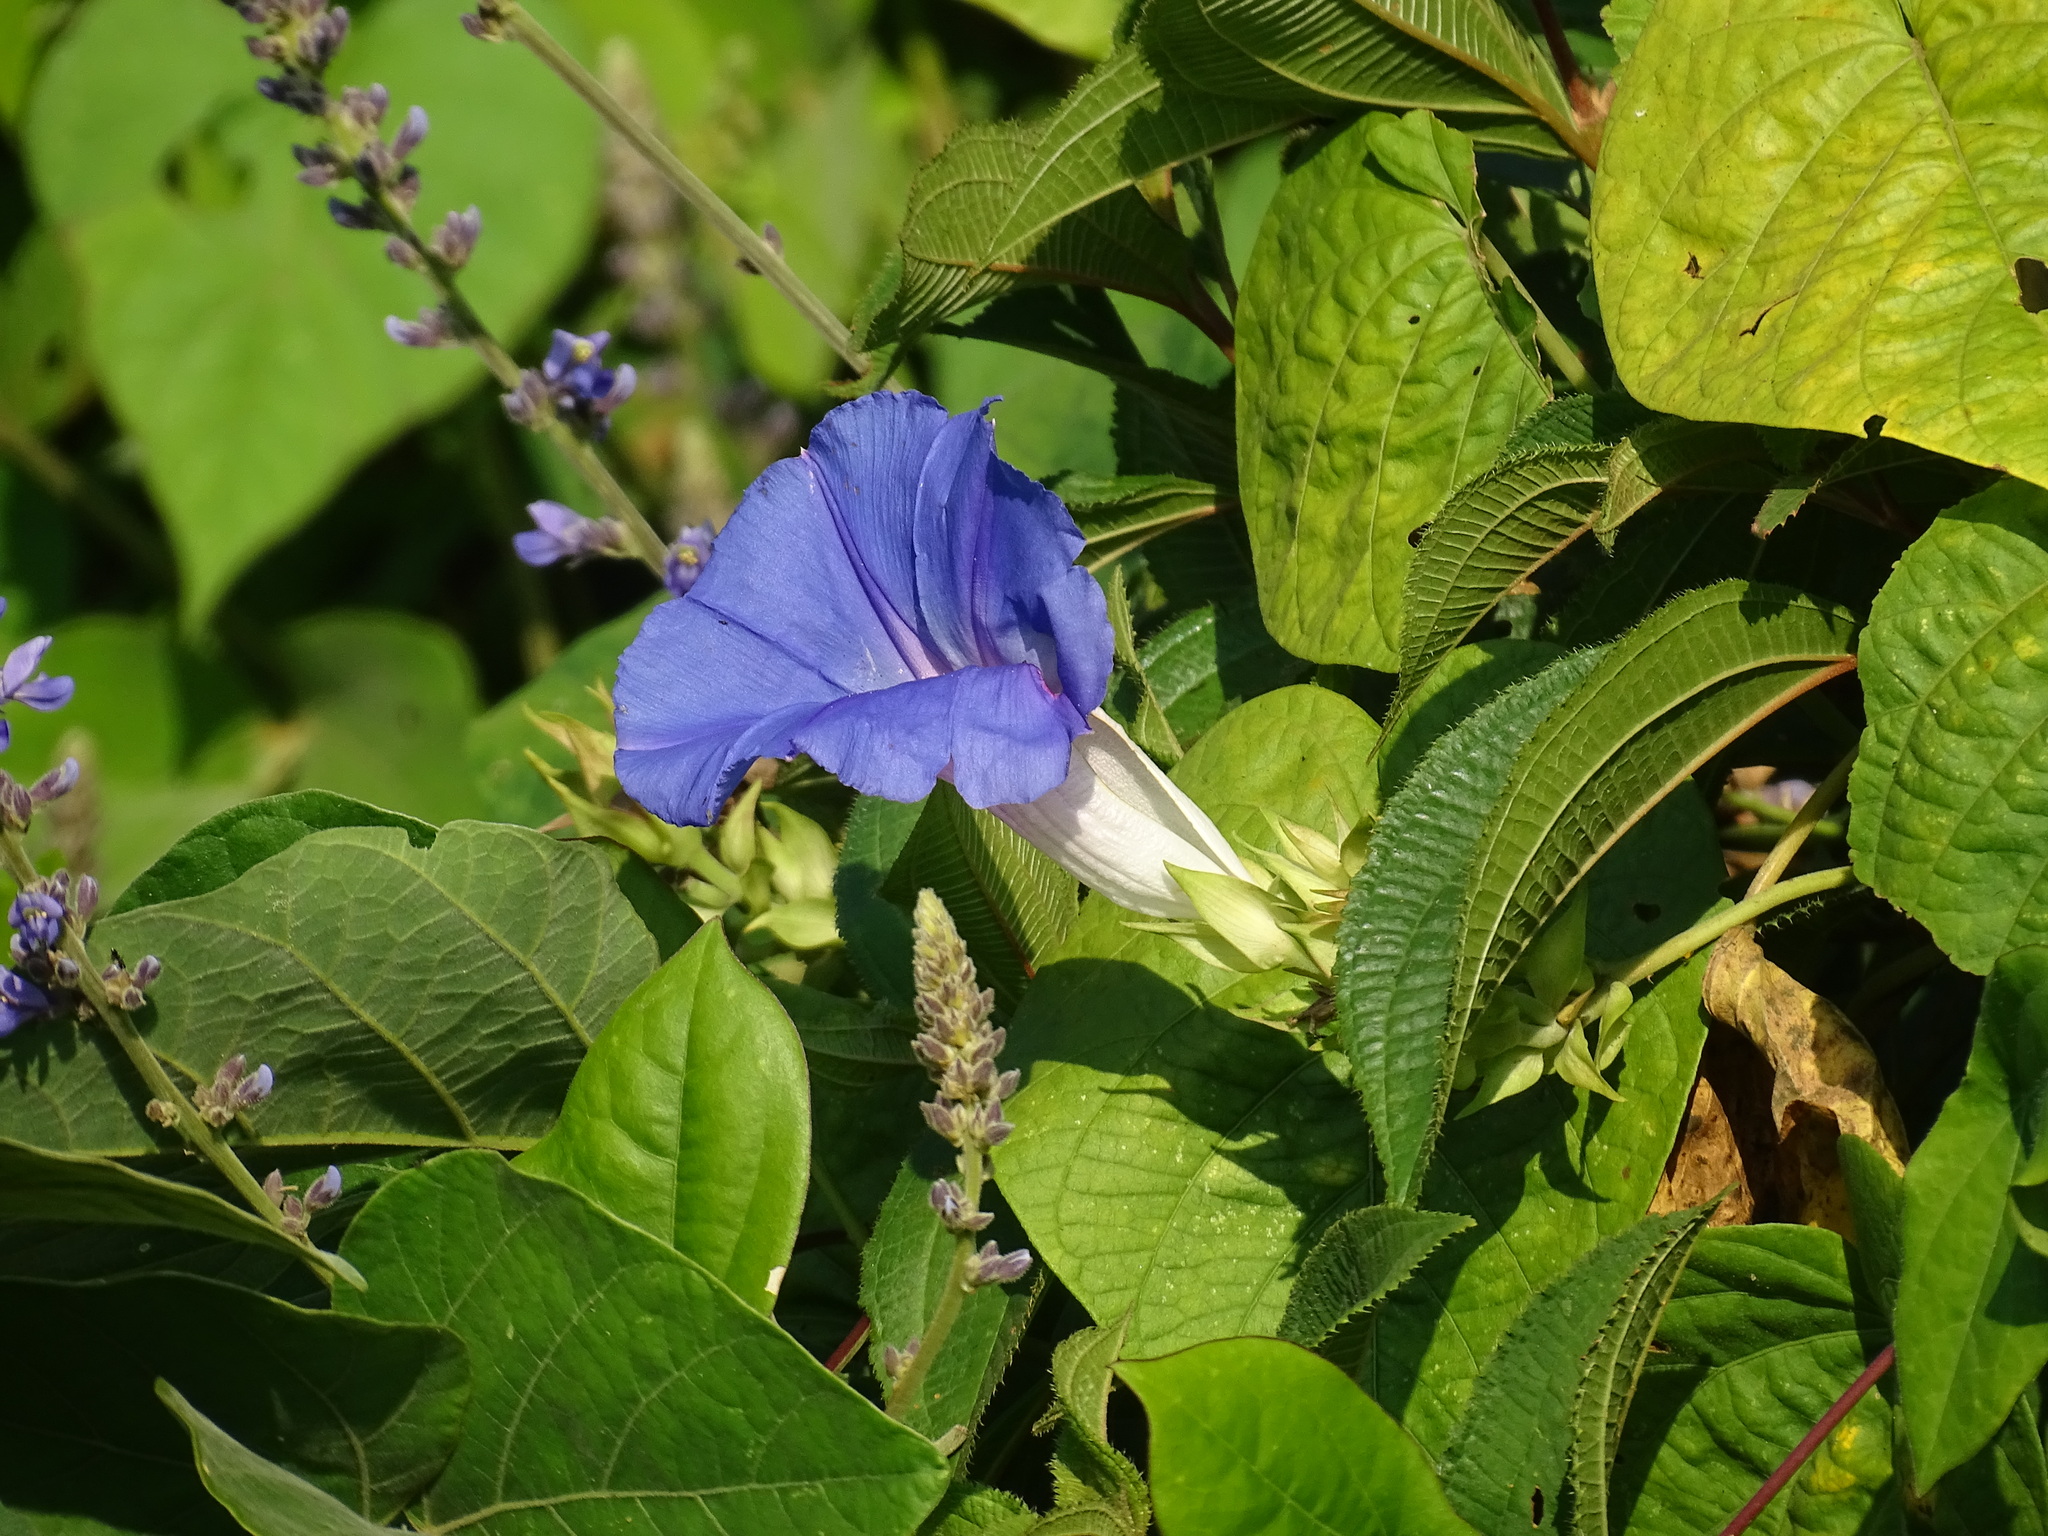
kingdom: Plantae
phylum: Tracheophyta
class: Magnoliopsida
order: Solanales
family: Convolvulaceae
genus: Ipomoea
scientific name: Ipomoea indica
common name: Blue dawnflower
